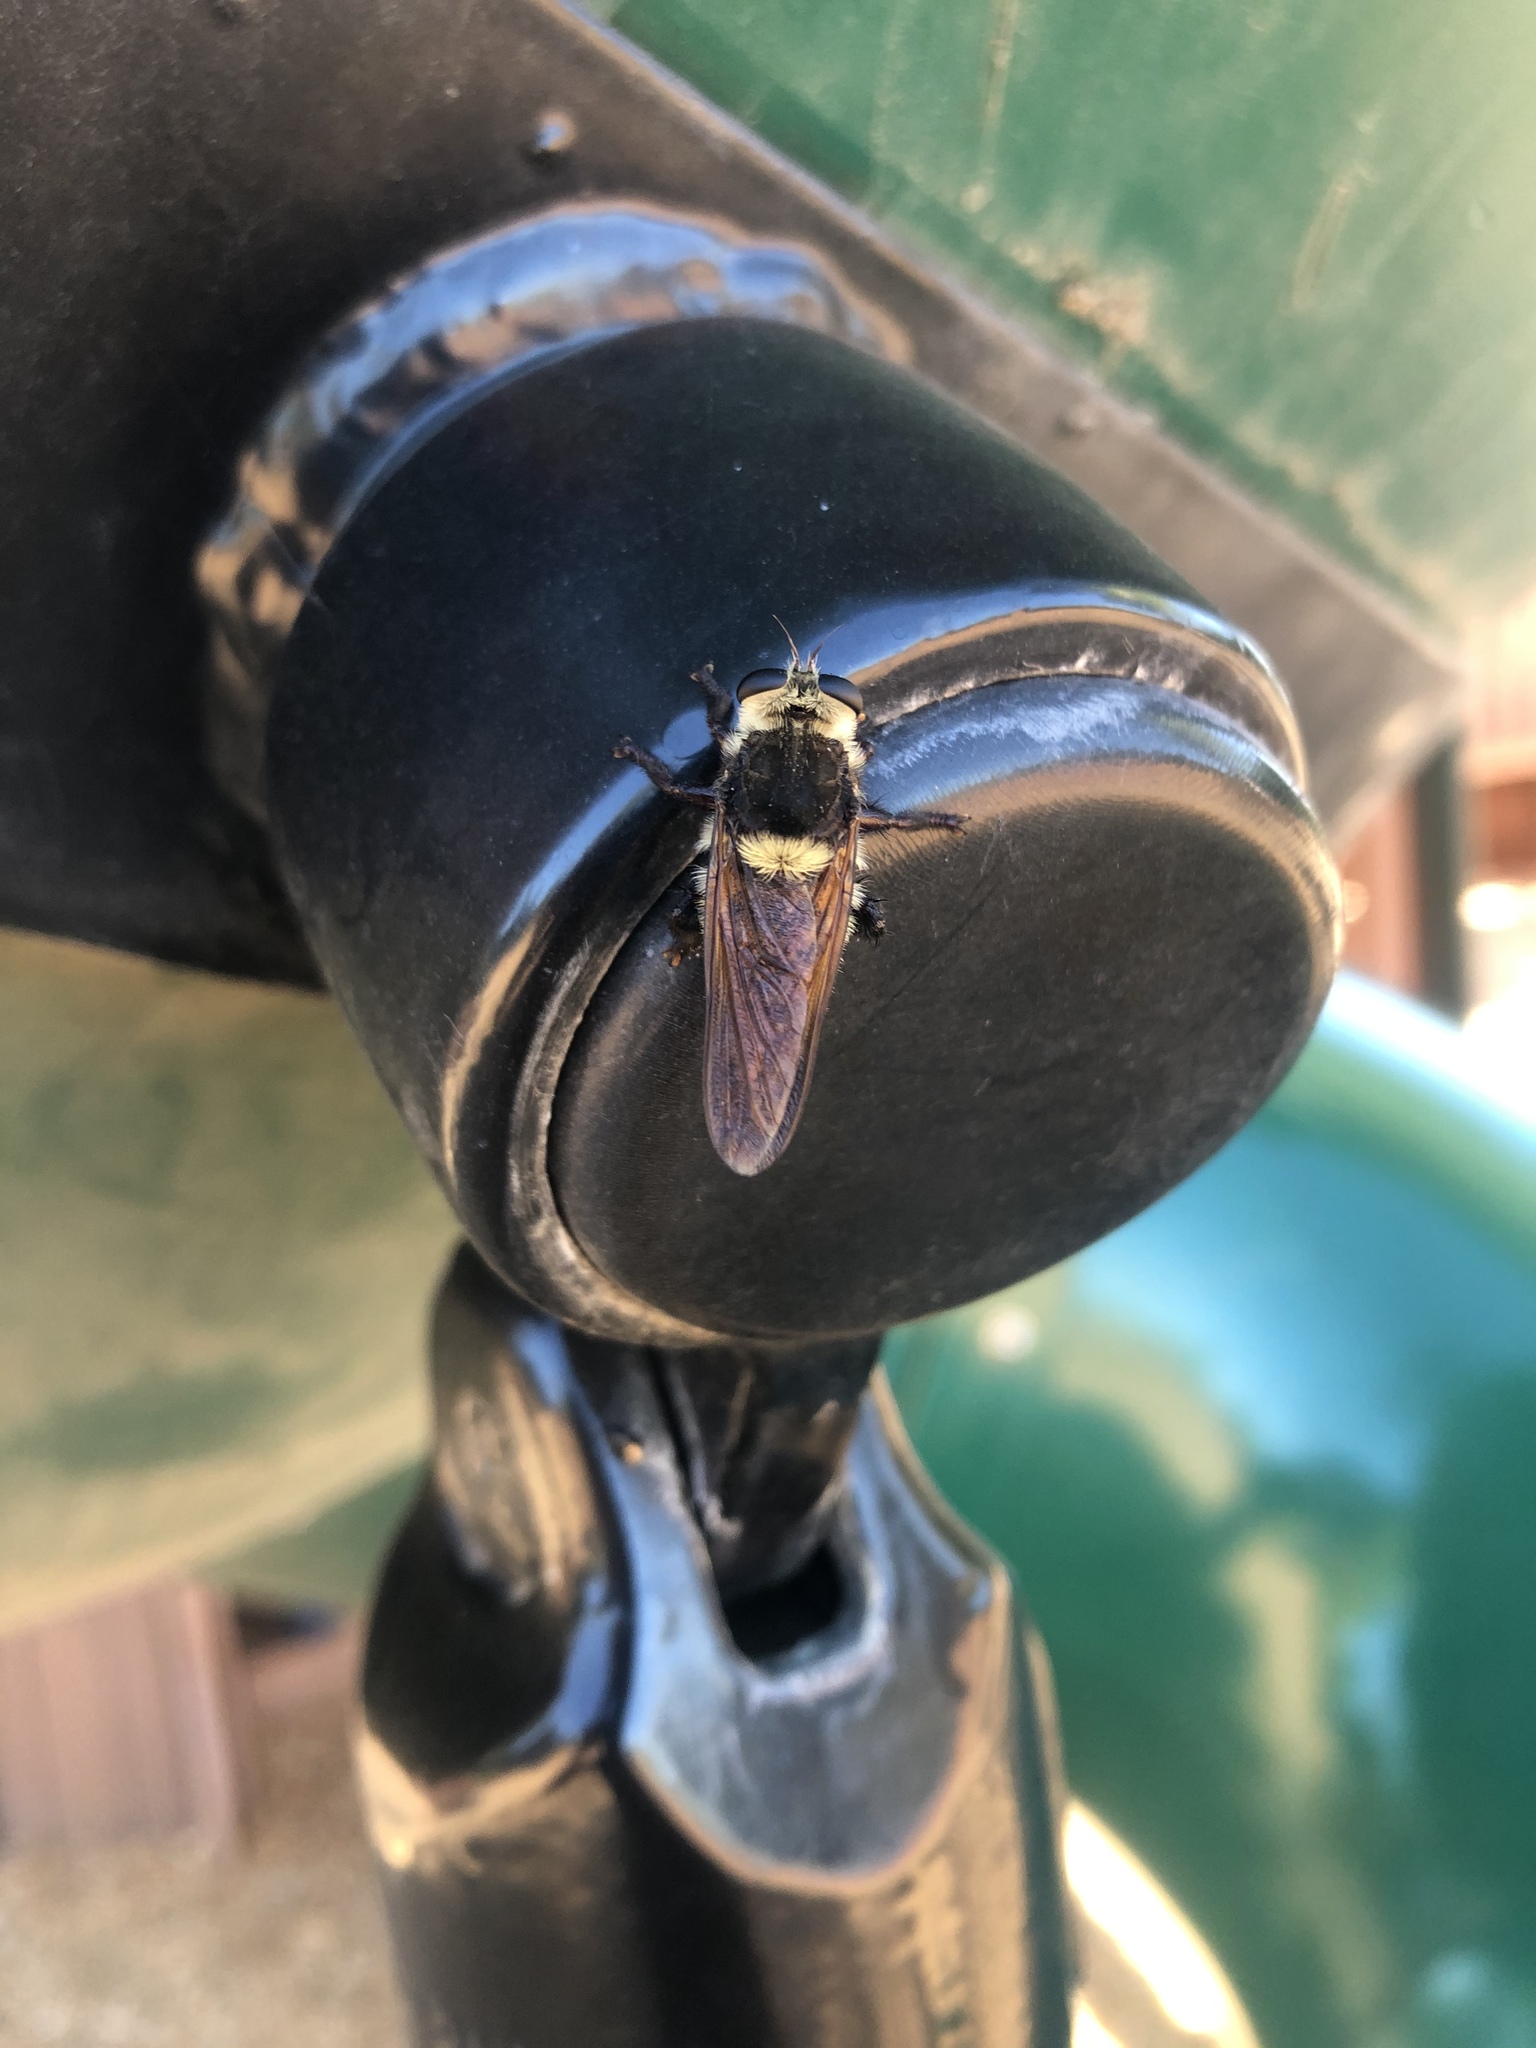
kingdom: Animalia
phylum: Arthropoda
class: Insecta
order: Diptera
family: Asilidae
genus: Mallophora
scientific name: Mallophora fautrix
